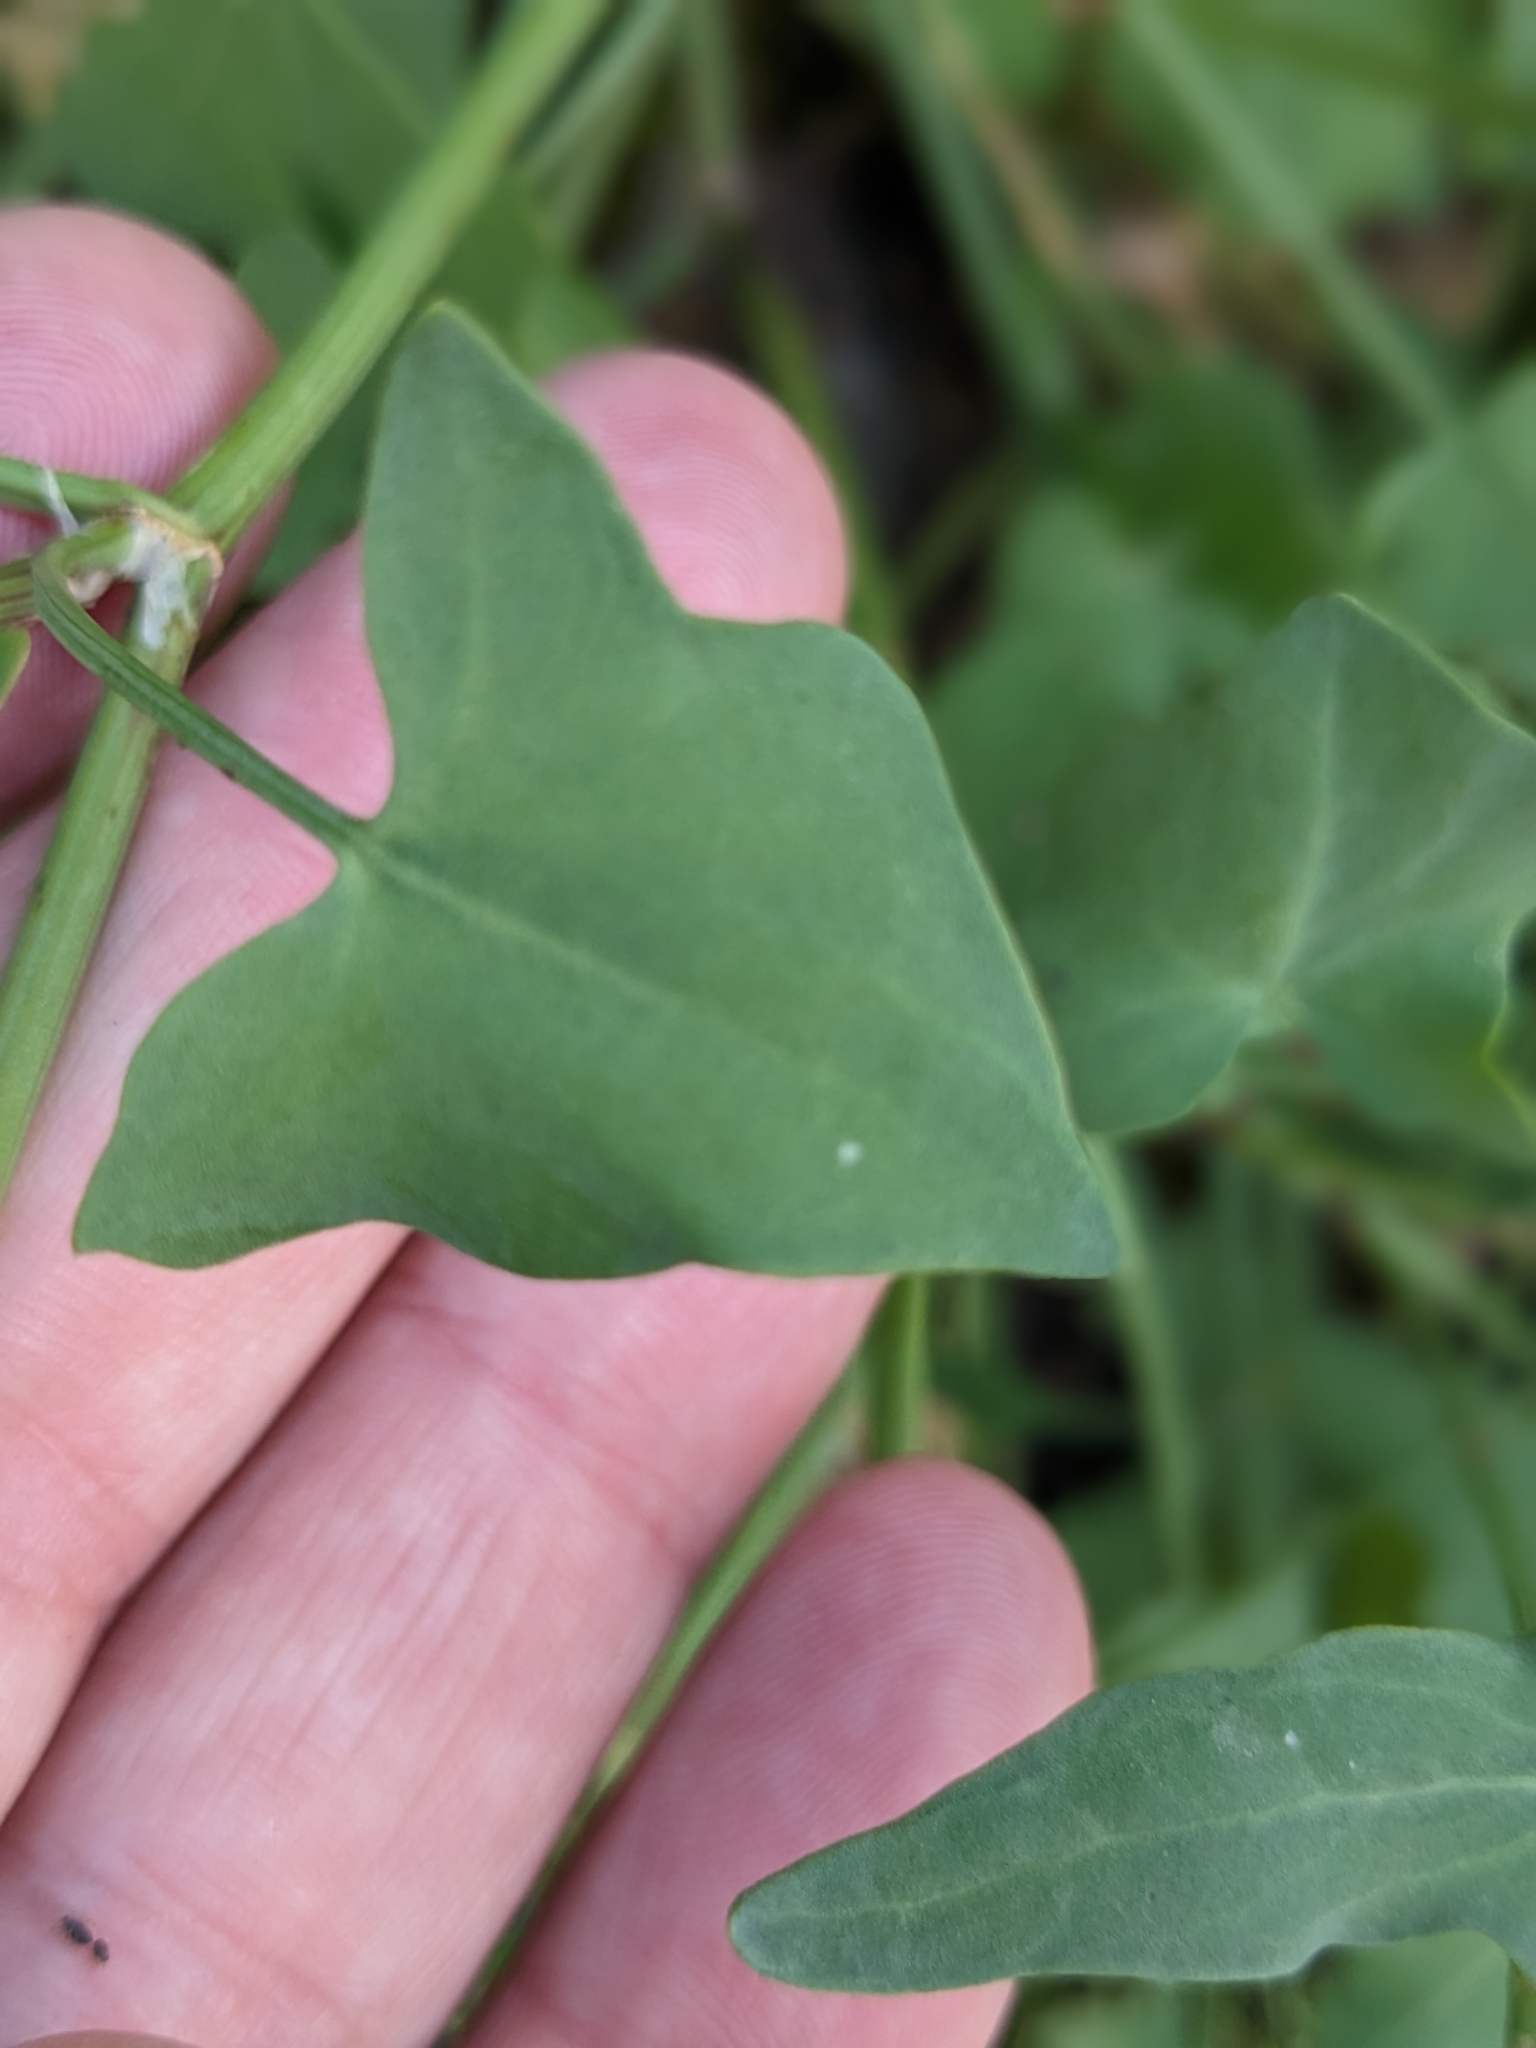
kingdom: Plantae
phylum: Tracheophyta
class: Magnoliopsida
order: Caryophyllales
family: Polygonaceae
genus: Rumex
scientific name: Rumex scutatus
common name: French sorrel
